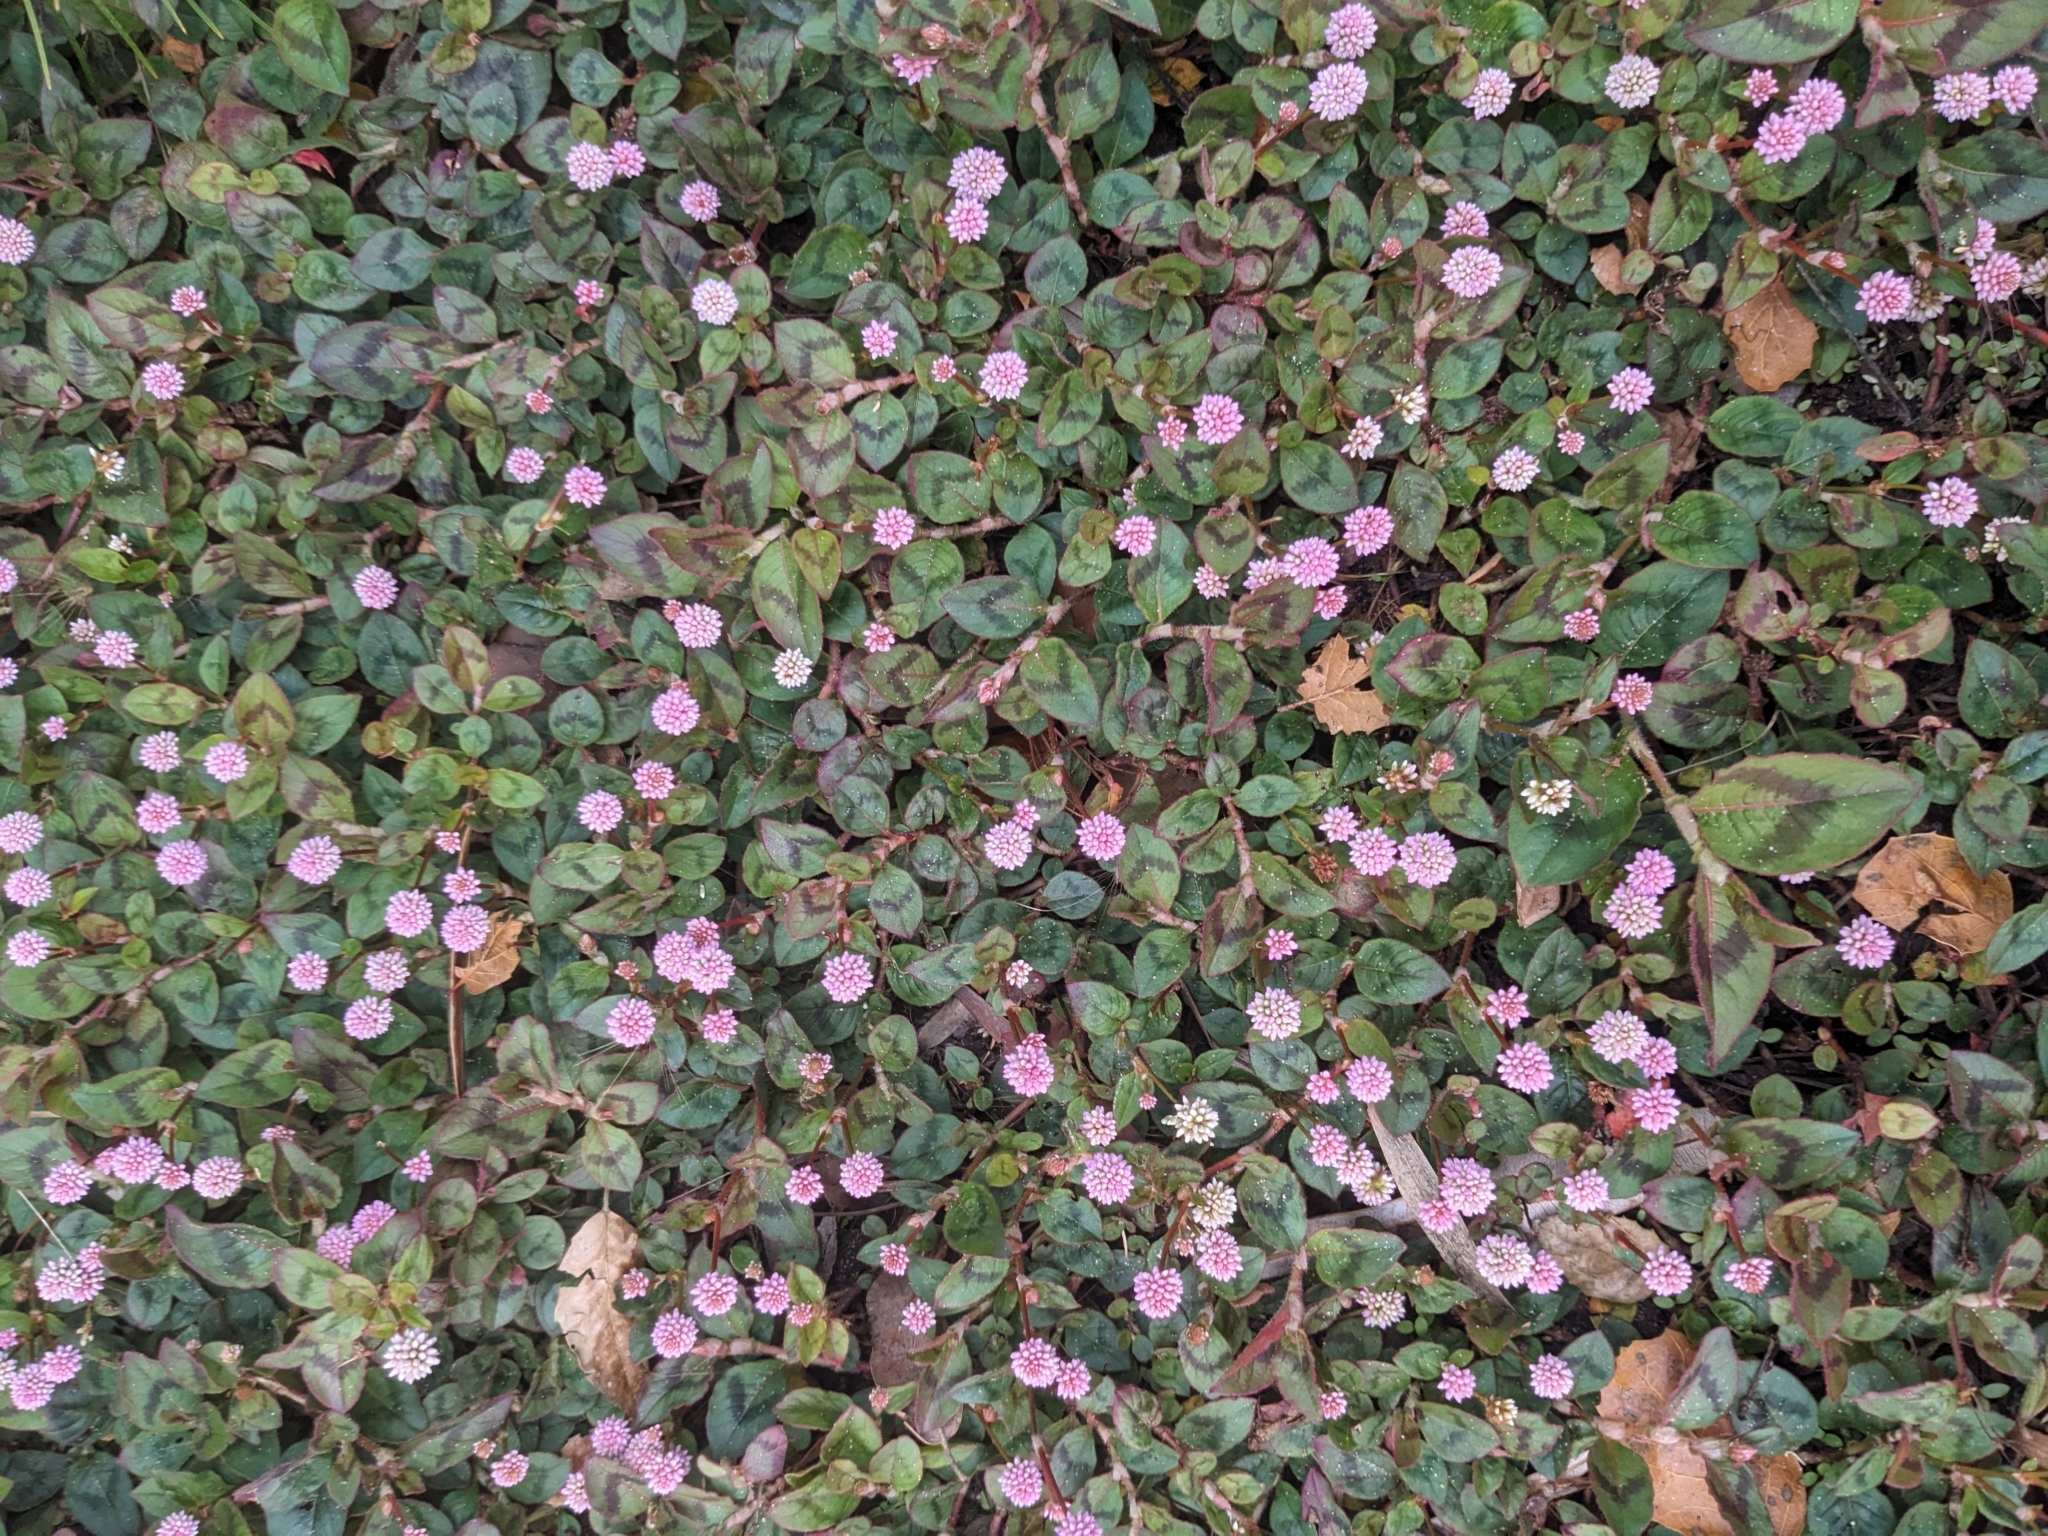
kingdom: Plantae
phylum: Tracheophyta
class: Magnoliopsida
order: Caryophyllales
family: Polygonaceae
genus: Persicaria
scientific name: Persicaria capitata
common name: Pinkhead smartweed
